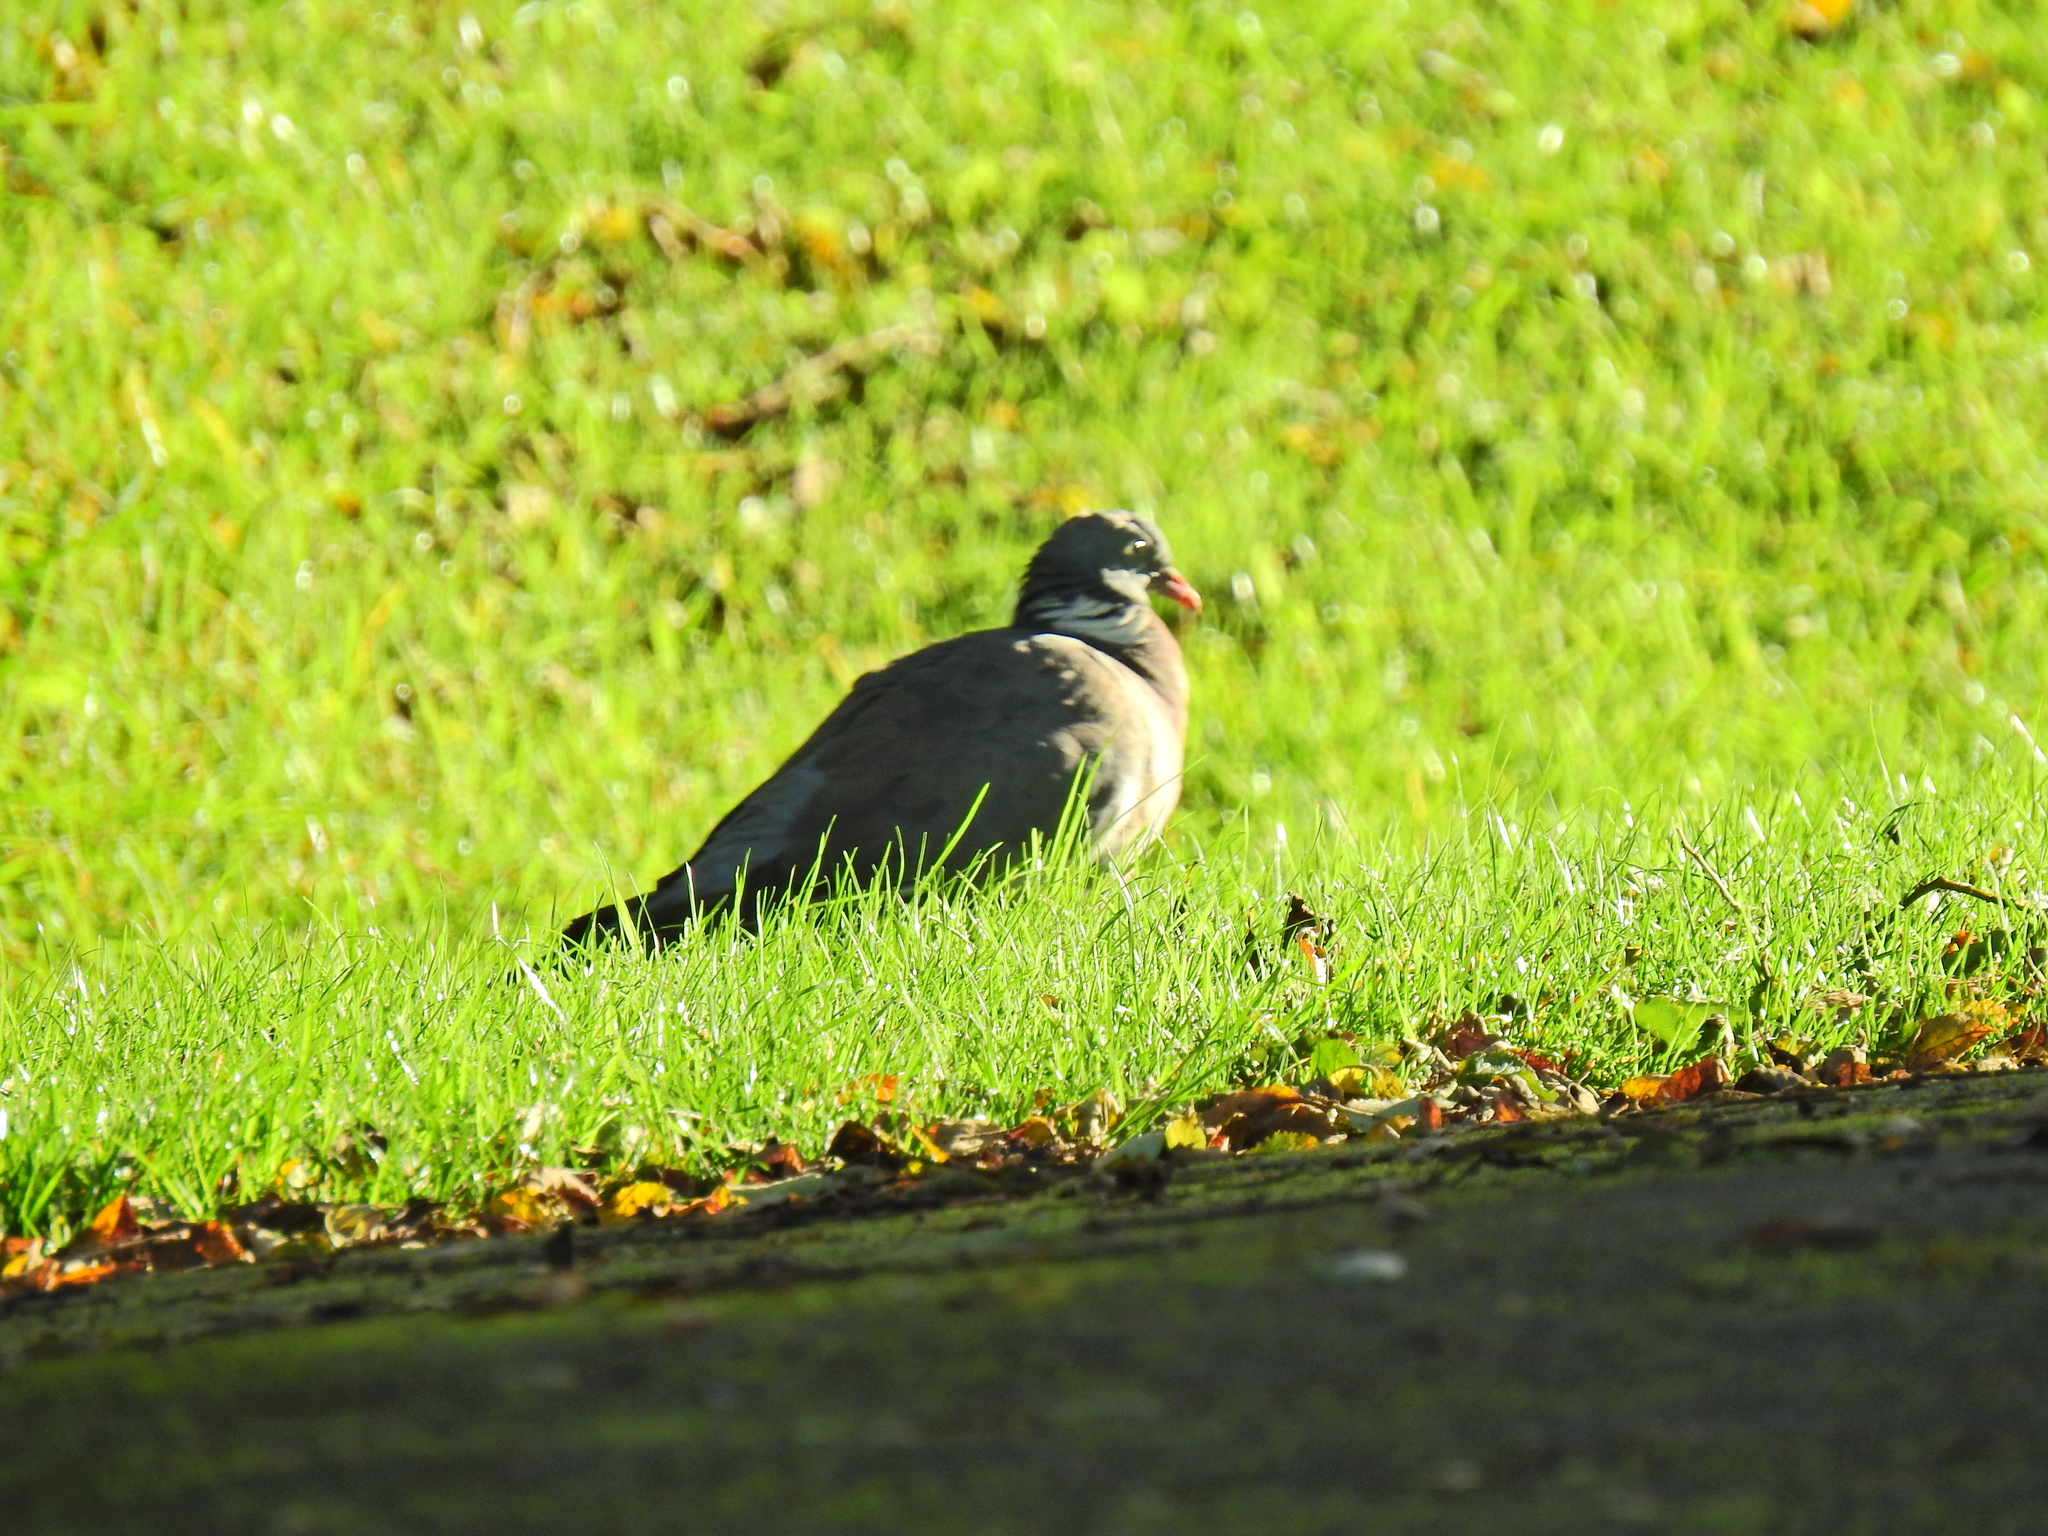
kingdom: Animalia
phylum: Chordata
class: Aves
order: Columbiformes
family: Columbidae
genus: Columba
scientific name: Columba palumbus
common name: Common wood pigeon
